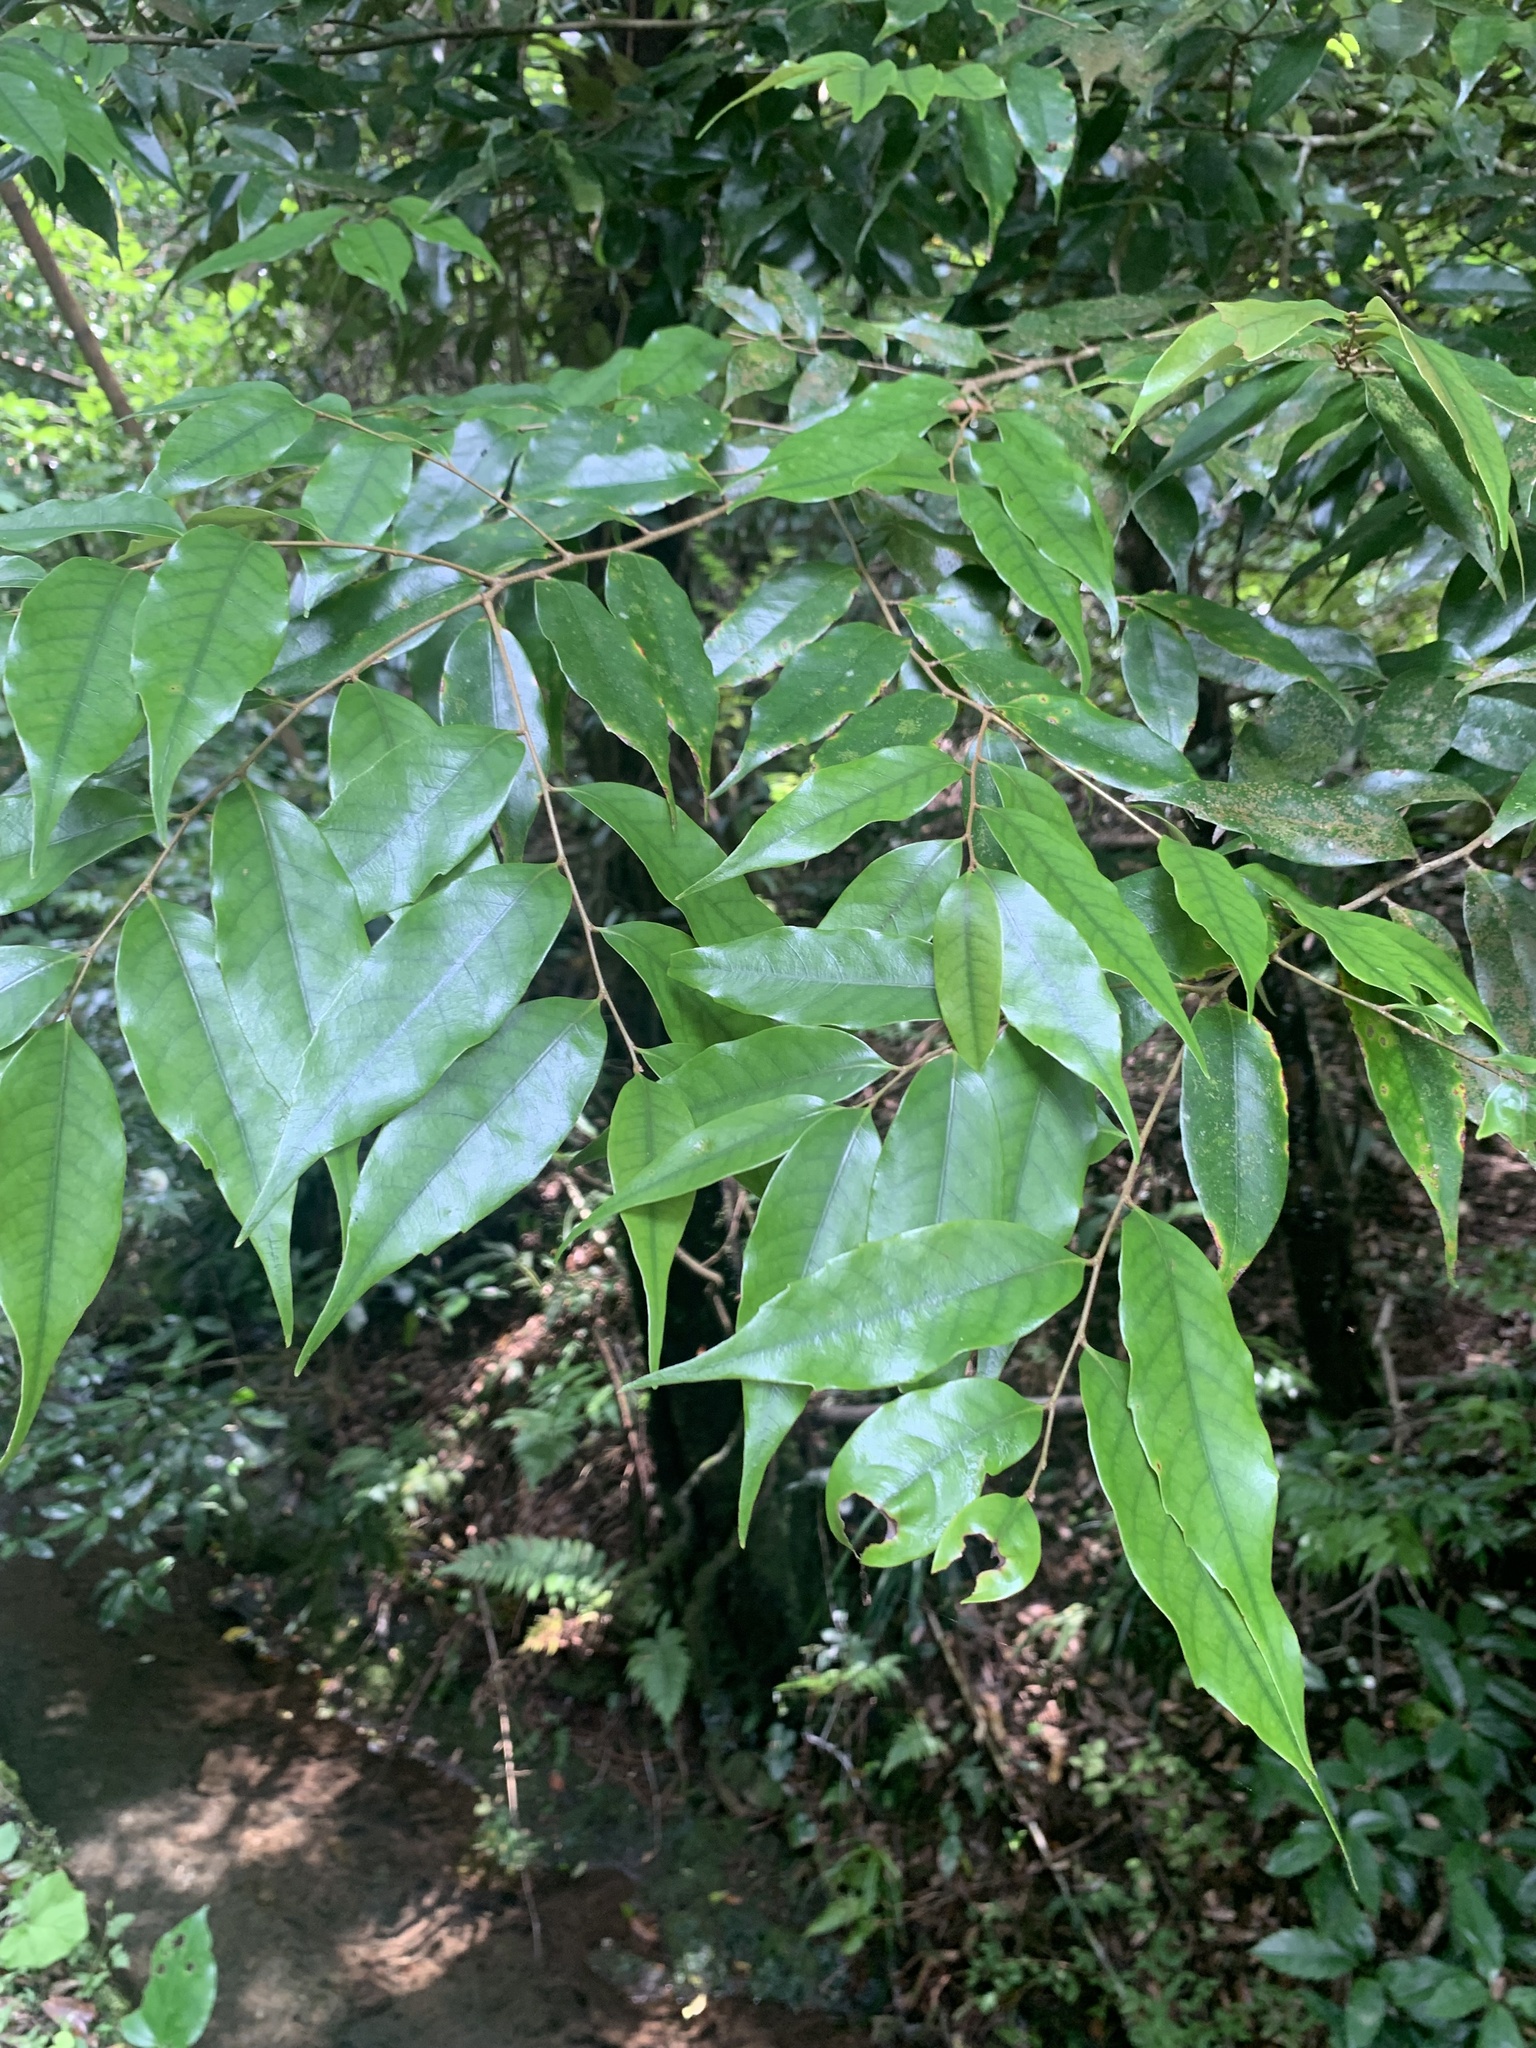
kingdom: Plantae
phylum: Tracheophyta
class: Magnoliopsida
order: Fagales
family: Fagaceae
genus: Castanopsis
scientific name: Castanopsis sieboldii
